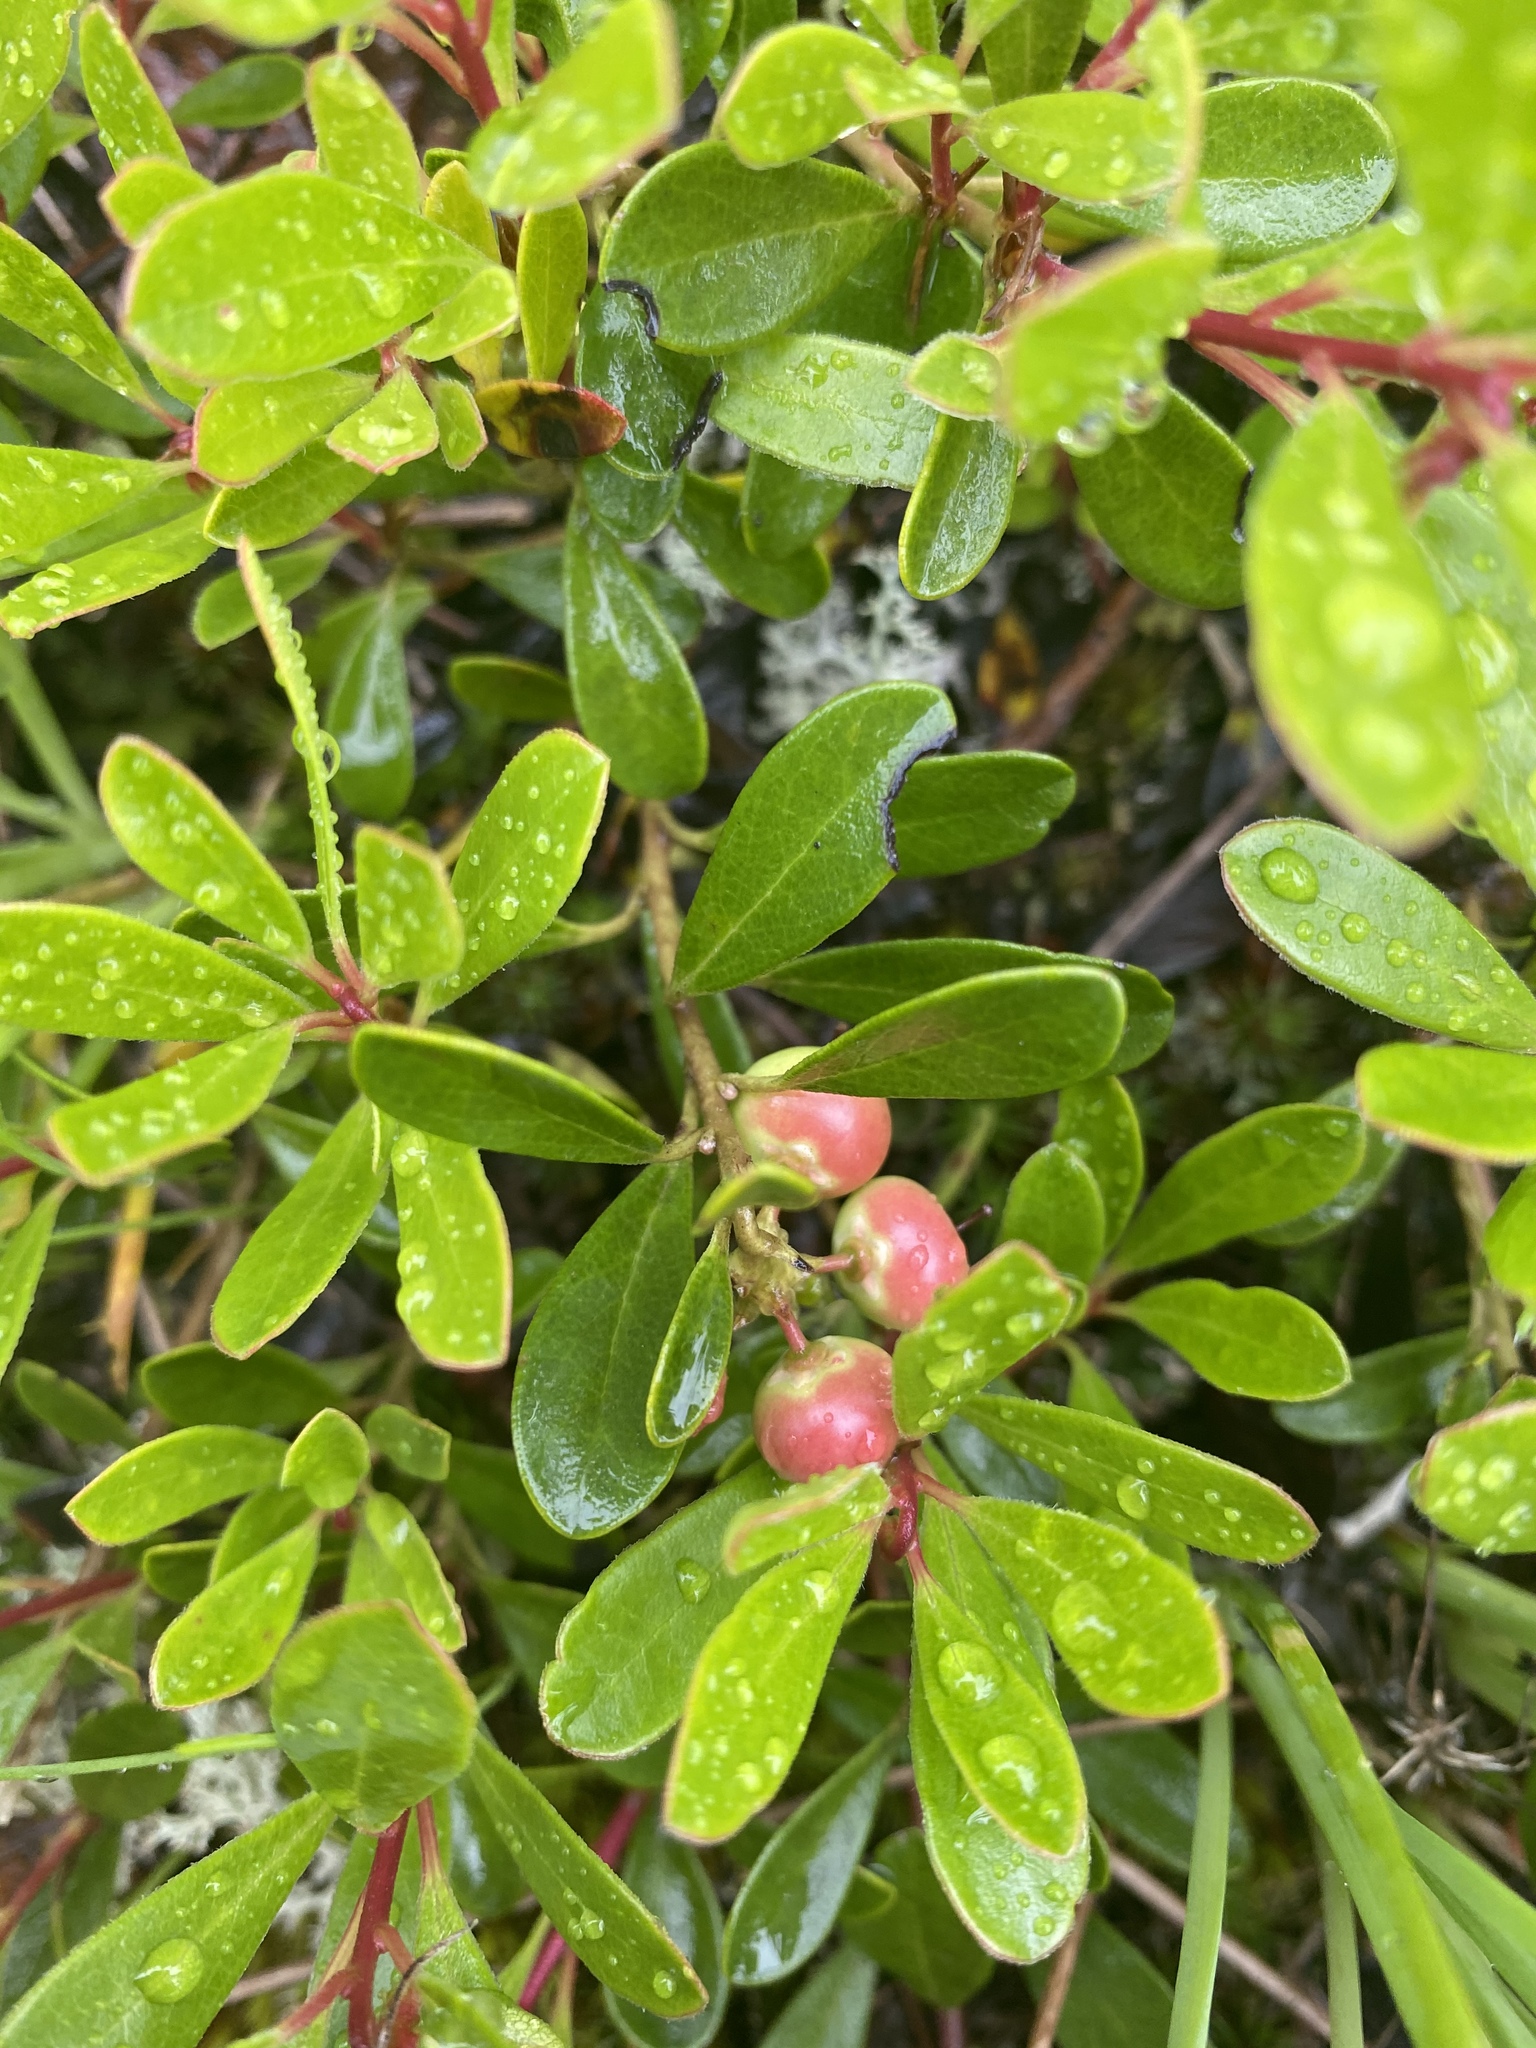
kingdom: Plantae
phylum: Tracheophyta
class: Magnoliopsida
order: Ericales
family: Ericaceae
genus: Arctostaphylos
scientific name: Arctostaphylos uva-ursi
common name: Bearberry
